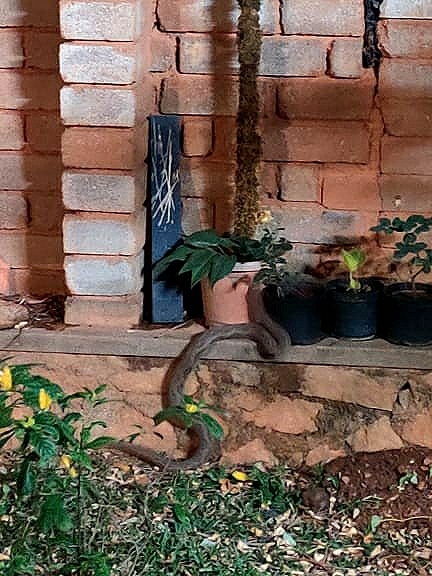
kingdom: Animalia
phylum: Chordata
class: Squamata
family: Viperidae
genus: Daboia
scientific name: Daboia russelii
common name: Western russel’s viper
